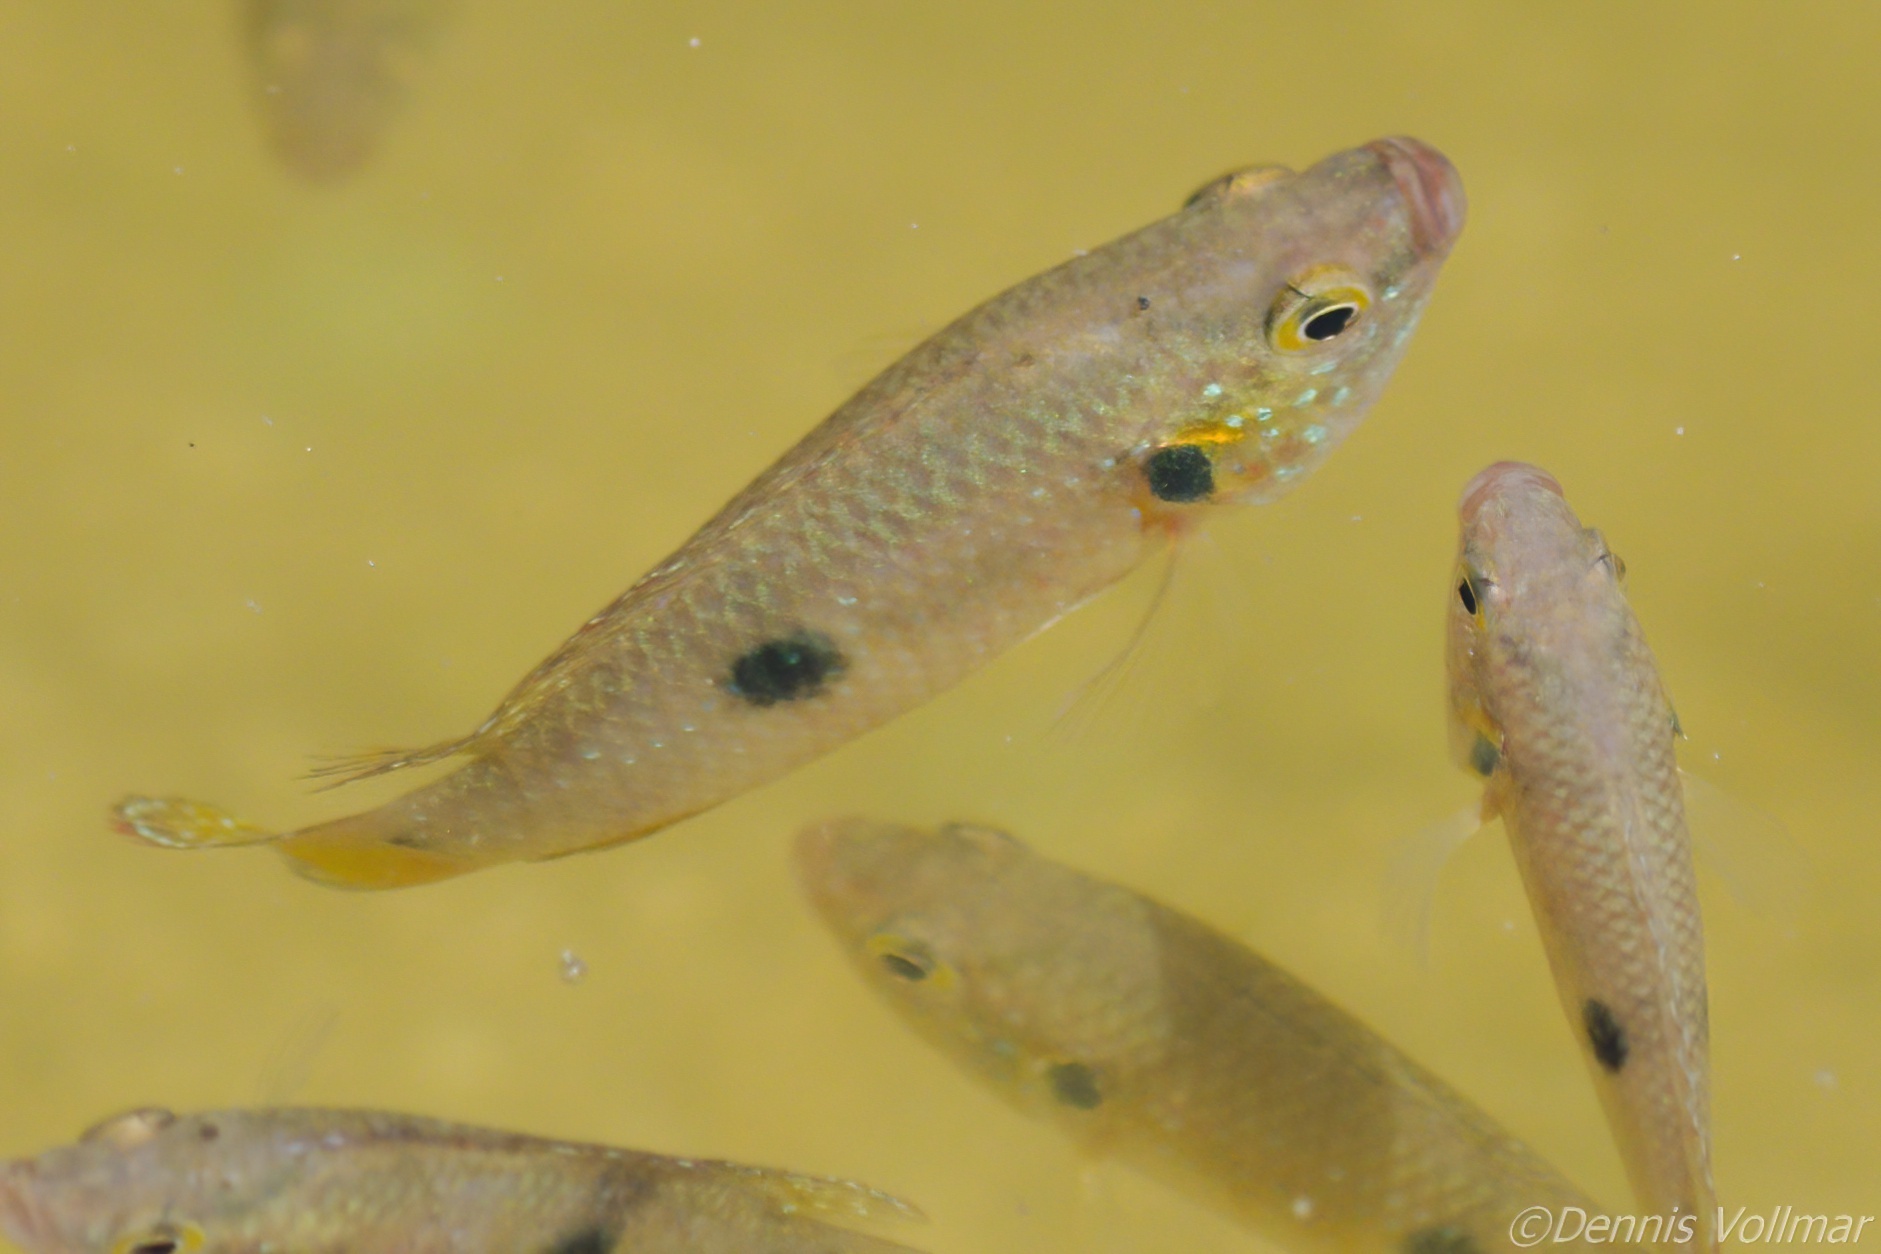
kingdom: Animalia
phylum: Chordata
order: Perciformes
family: Cichlidae
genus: Rubricatochromis
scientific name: Rubricatochromis
